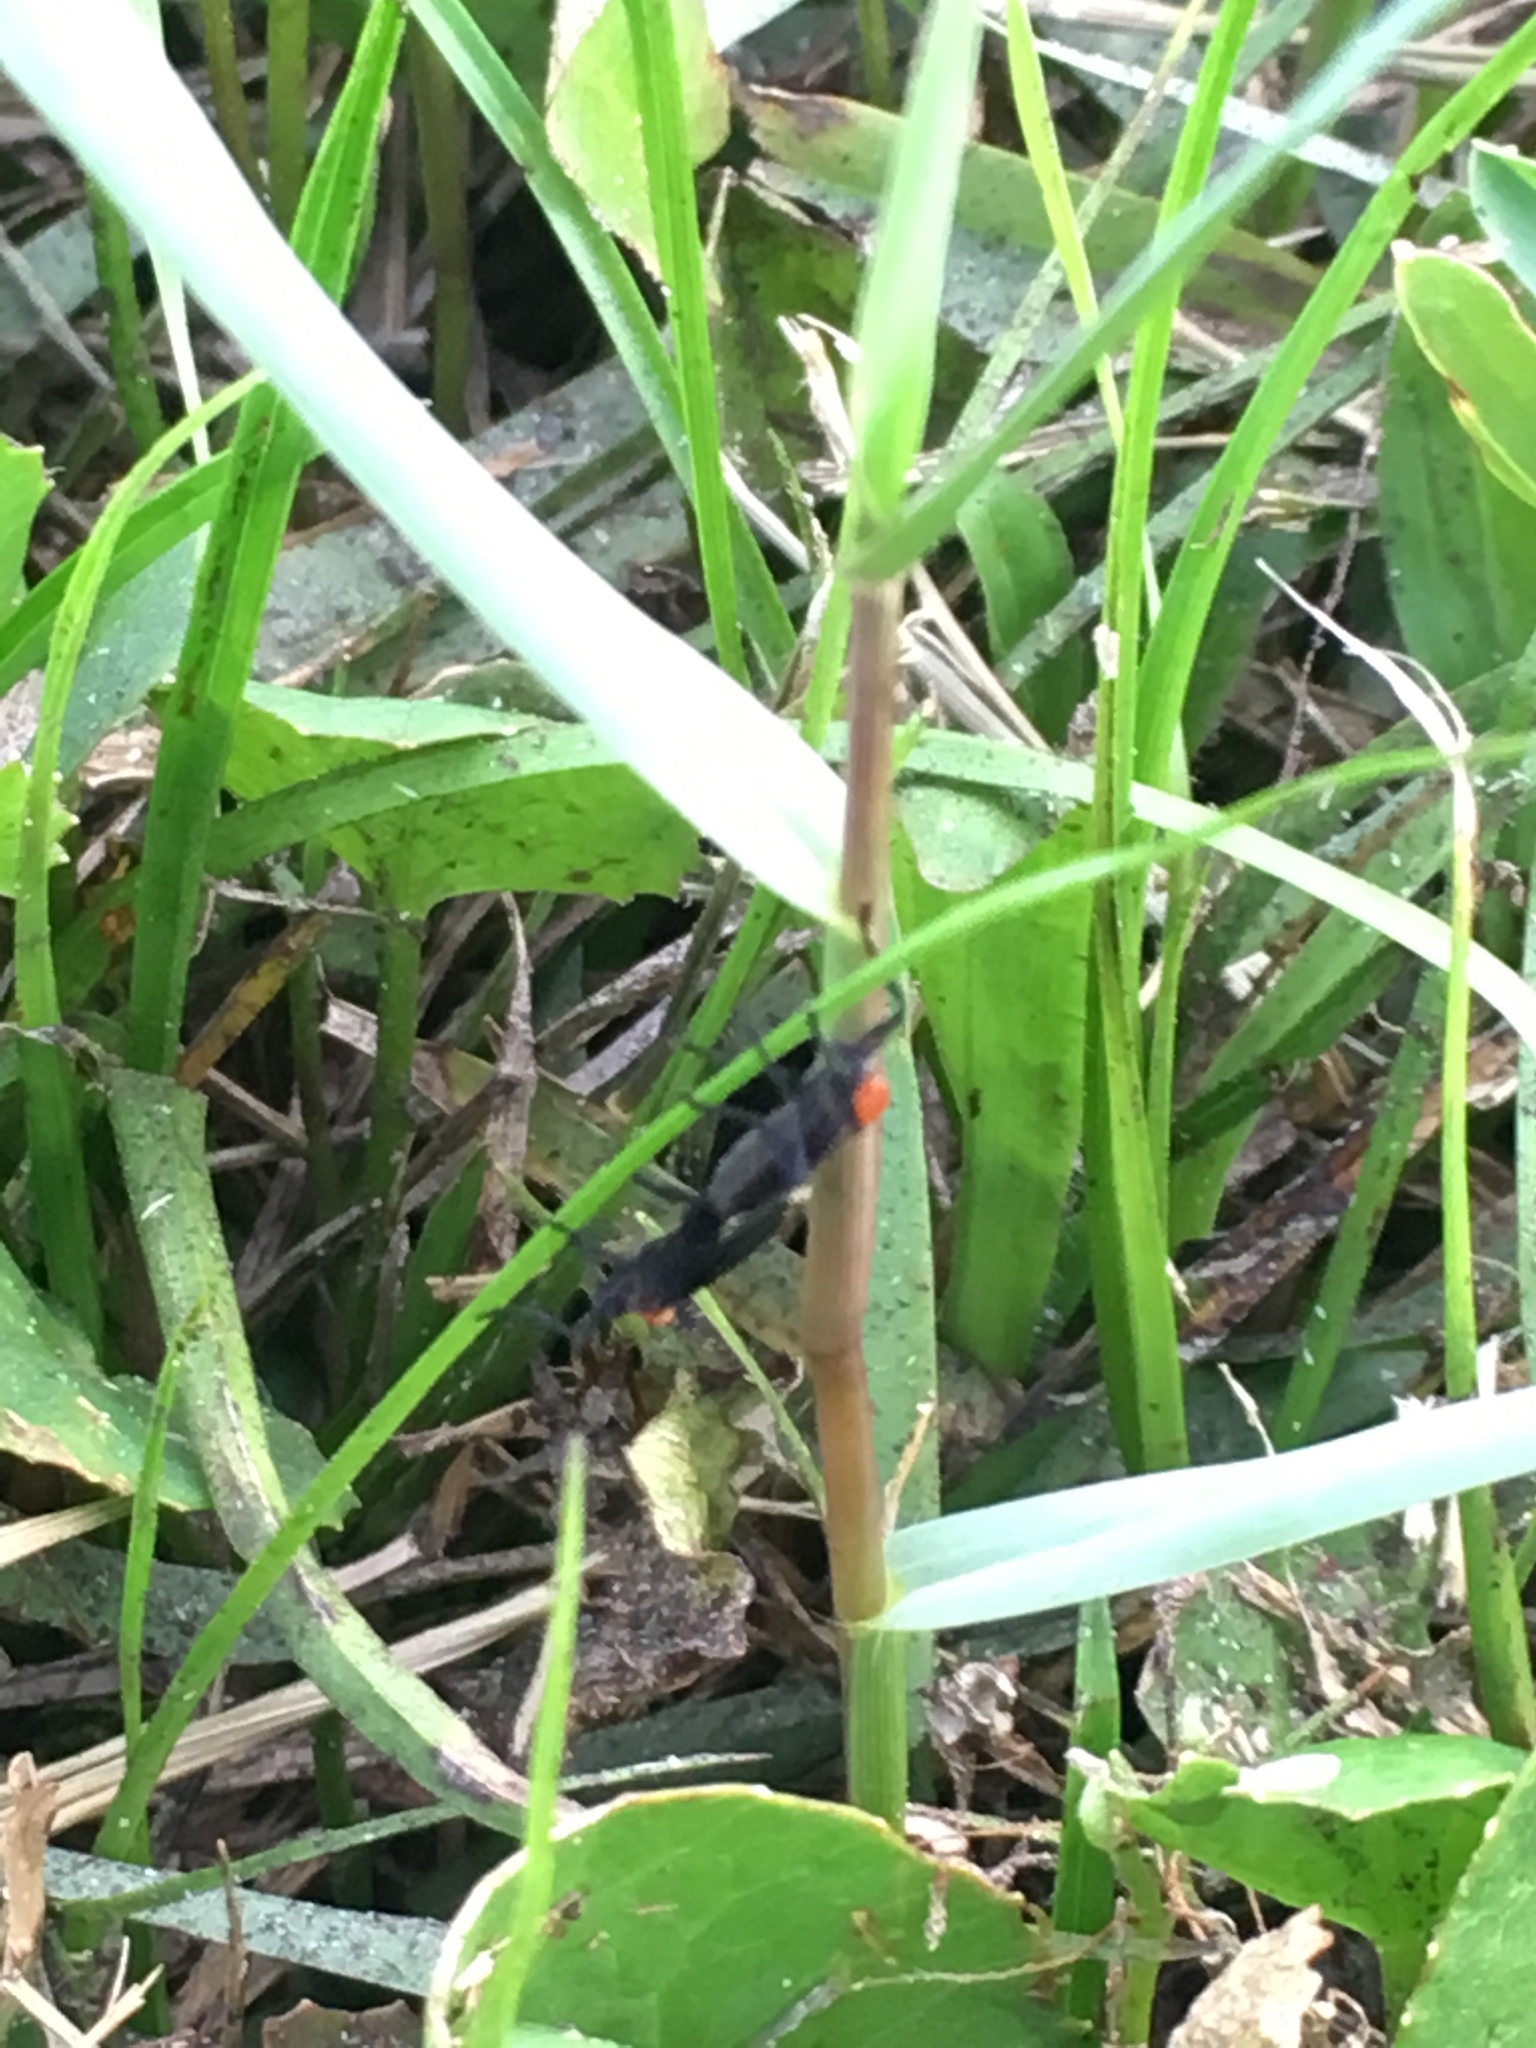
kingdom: Animalia
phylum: Arthropoda
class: Insecta
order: Diptera
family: Bibionidae
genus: Plecia
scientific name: Plecia nearctica
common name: March fly
